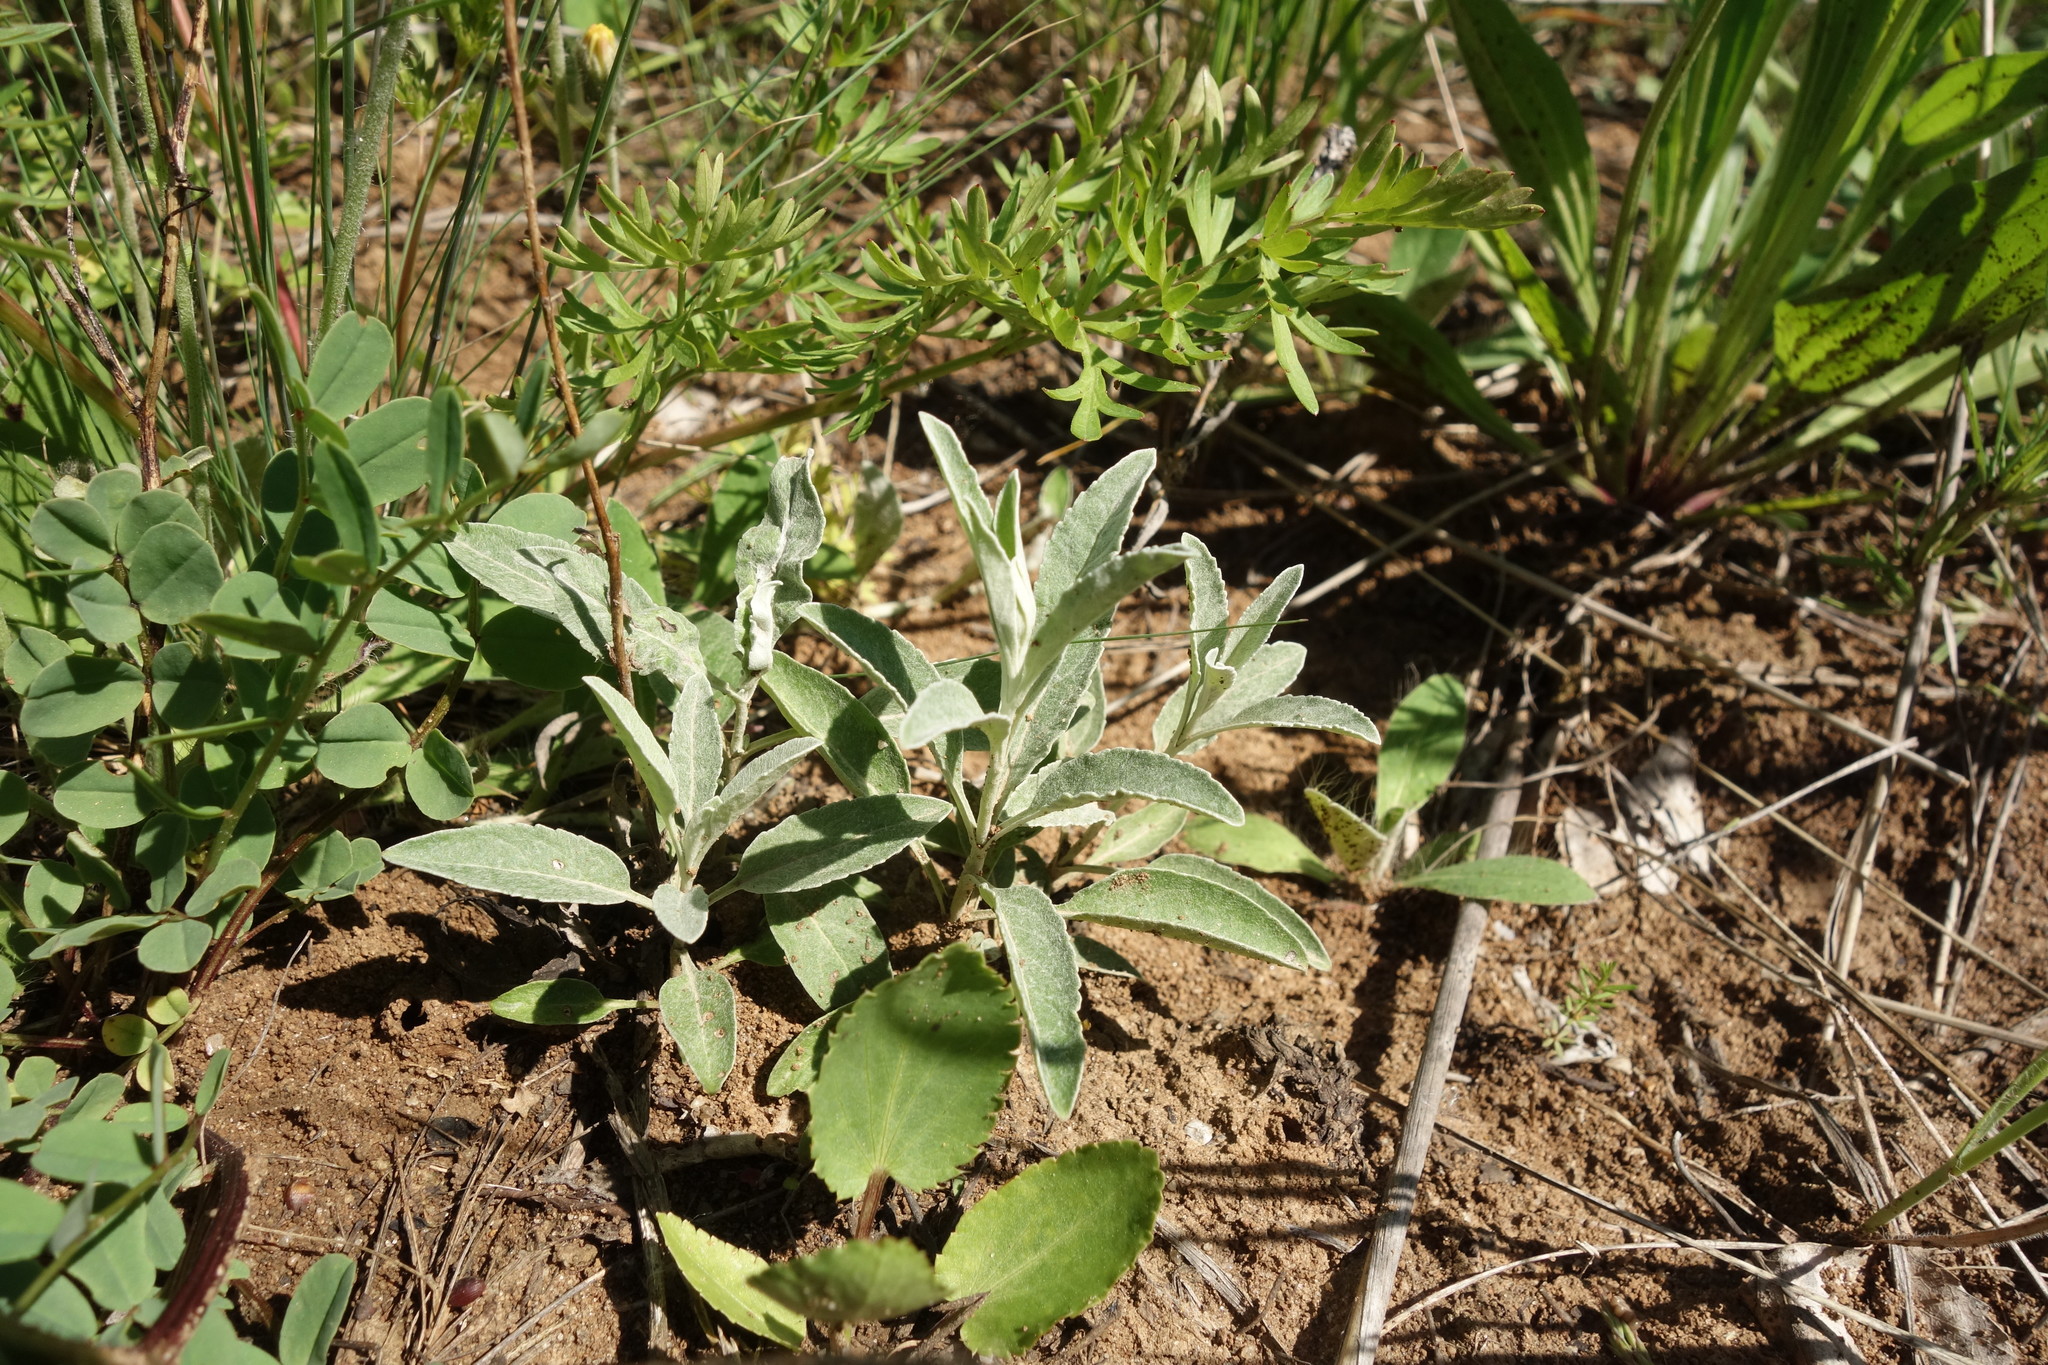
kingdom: Plantae
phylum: Tracheophyta
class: Magnoliopsida
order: Lamiales
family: Plantaginaceae
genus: Veronica
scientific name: Veronica incana
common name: Silver speedwell
